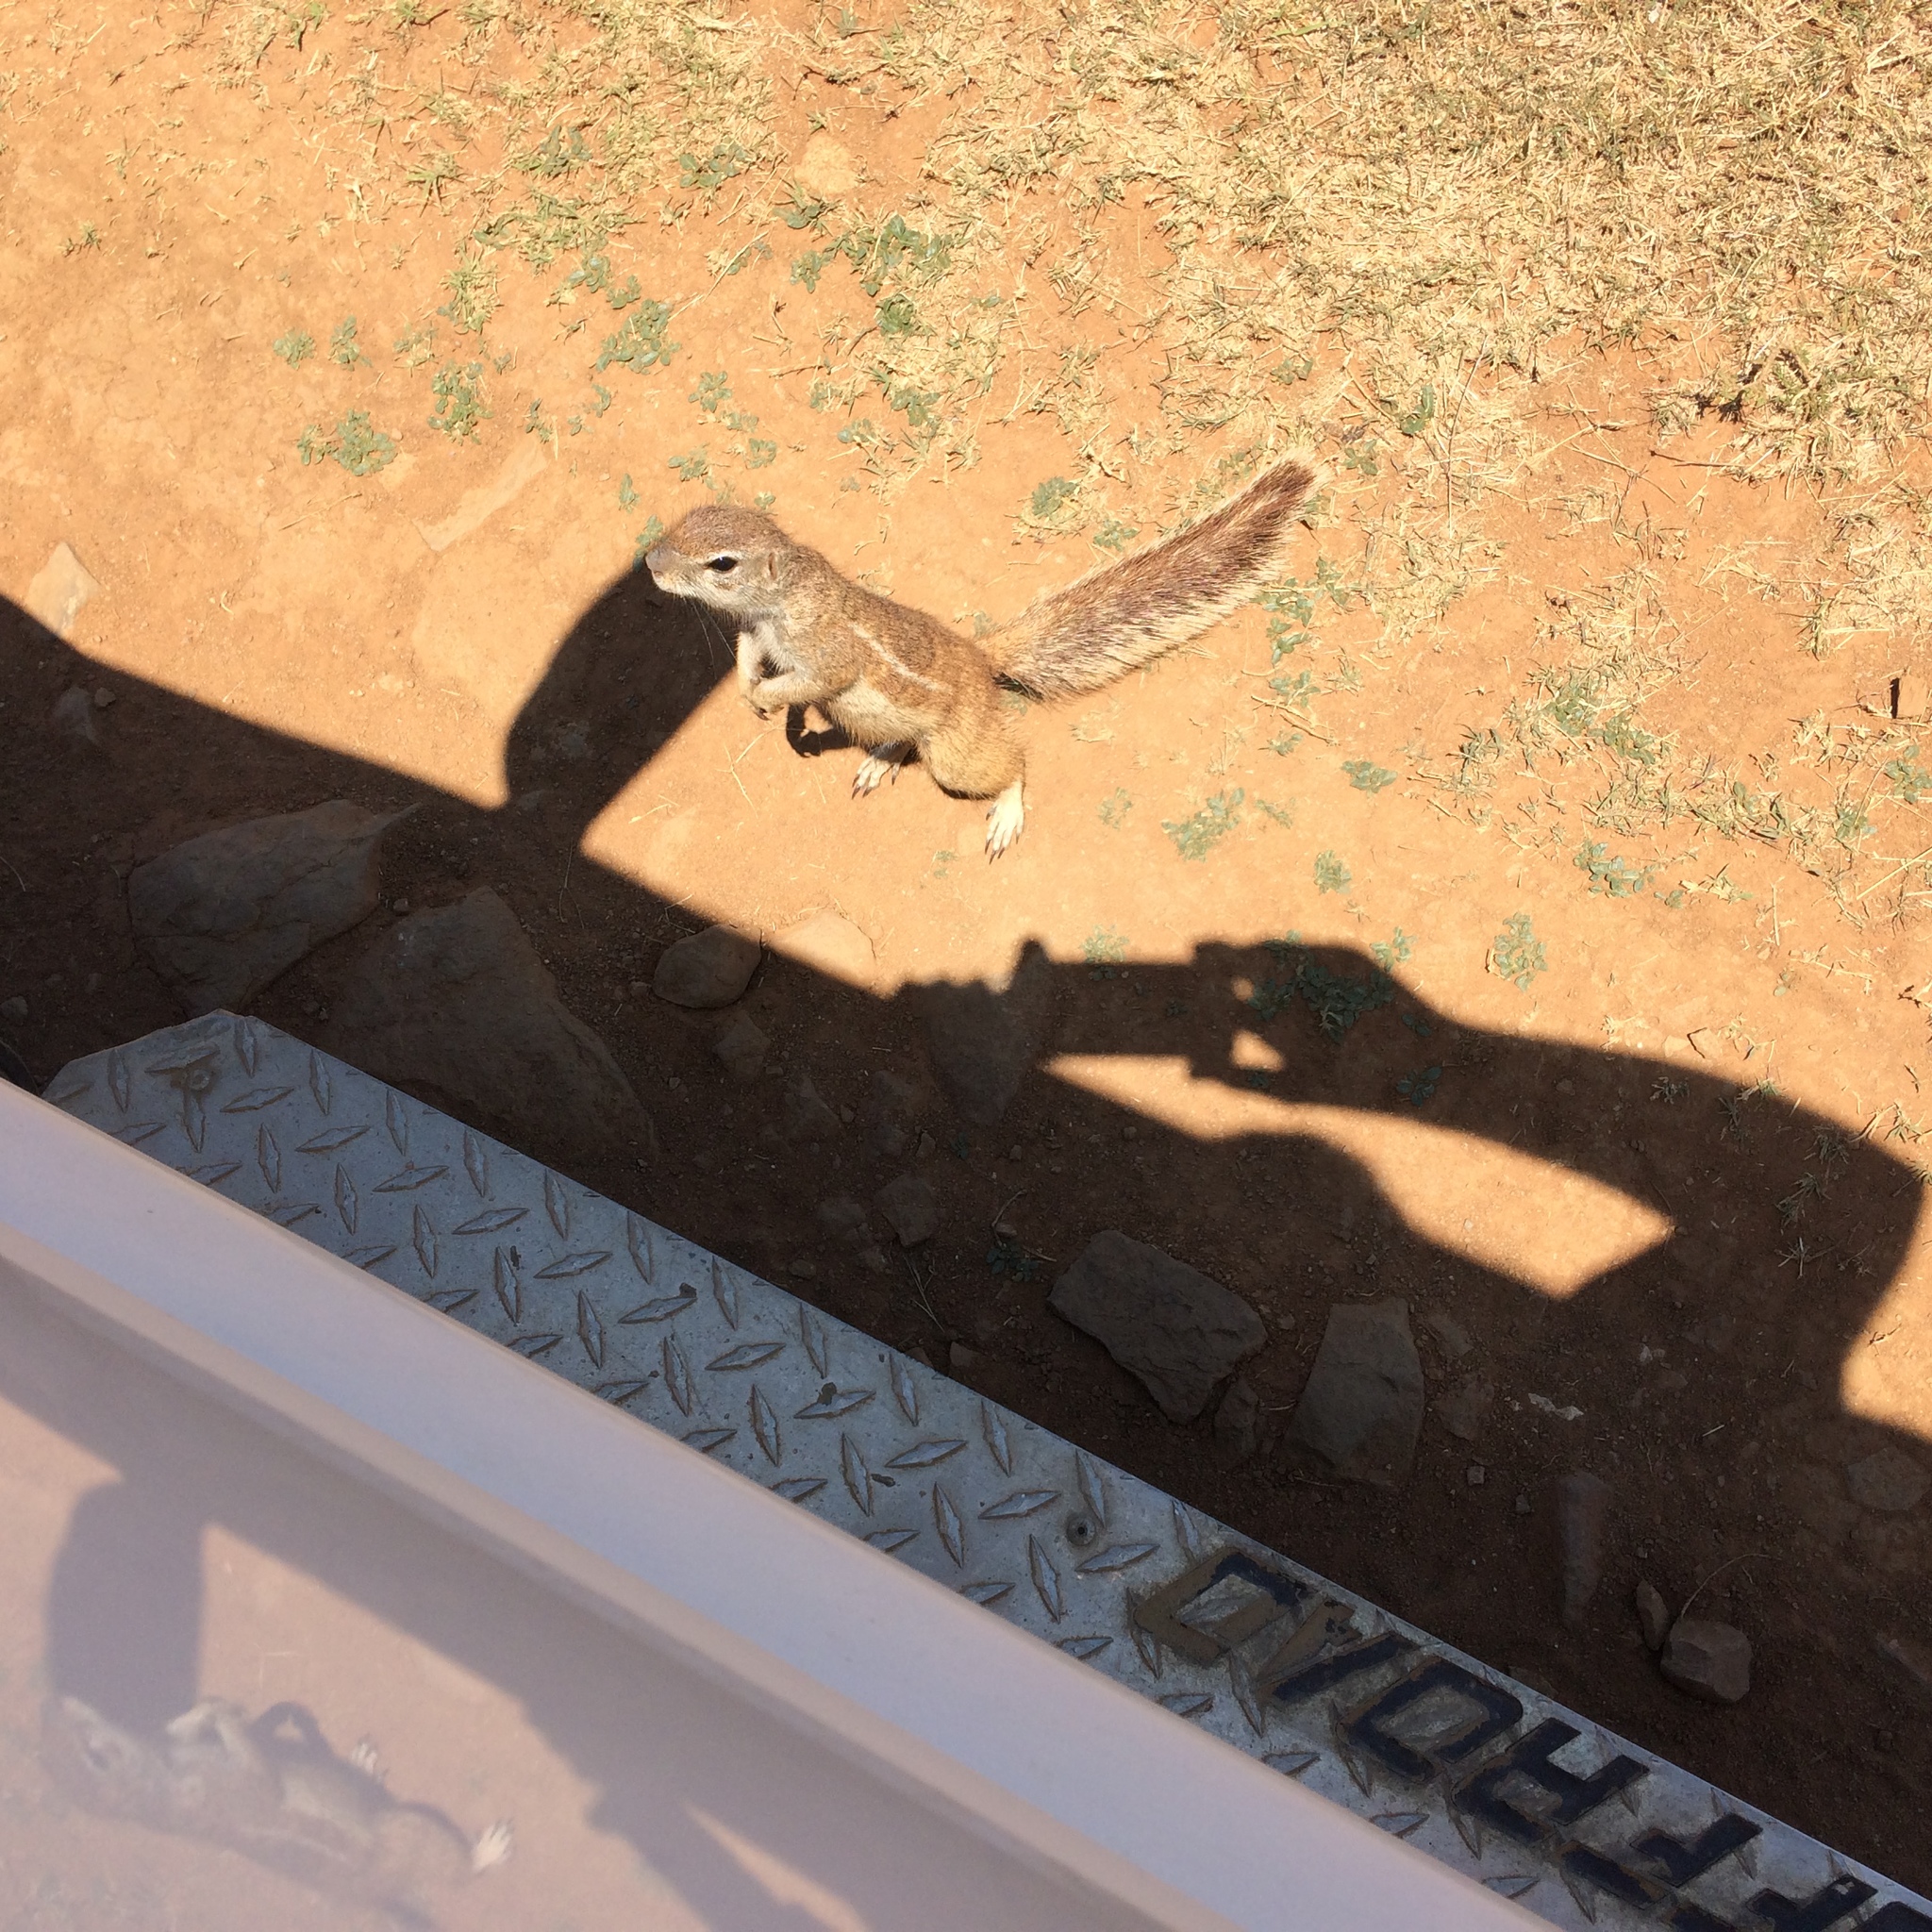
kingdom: Animalia
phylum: Chordata
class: Mammalia
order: Rodentia
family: Sciuridae
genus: Xerus
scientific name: Xerus inauris
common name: South african ground squirrel
